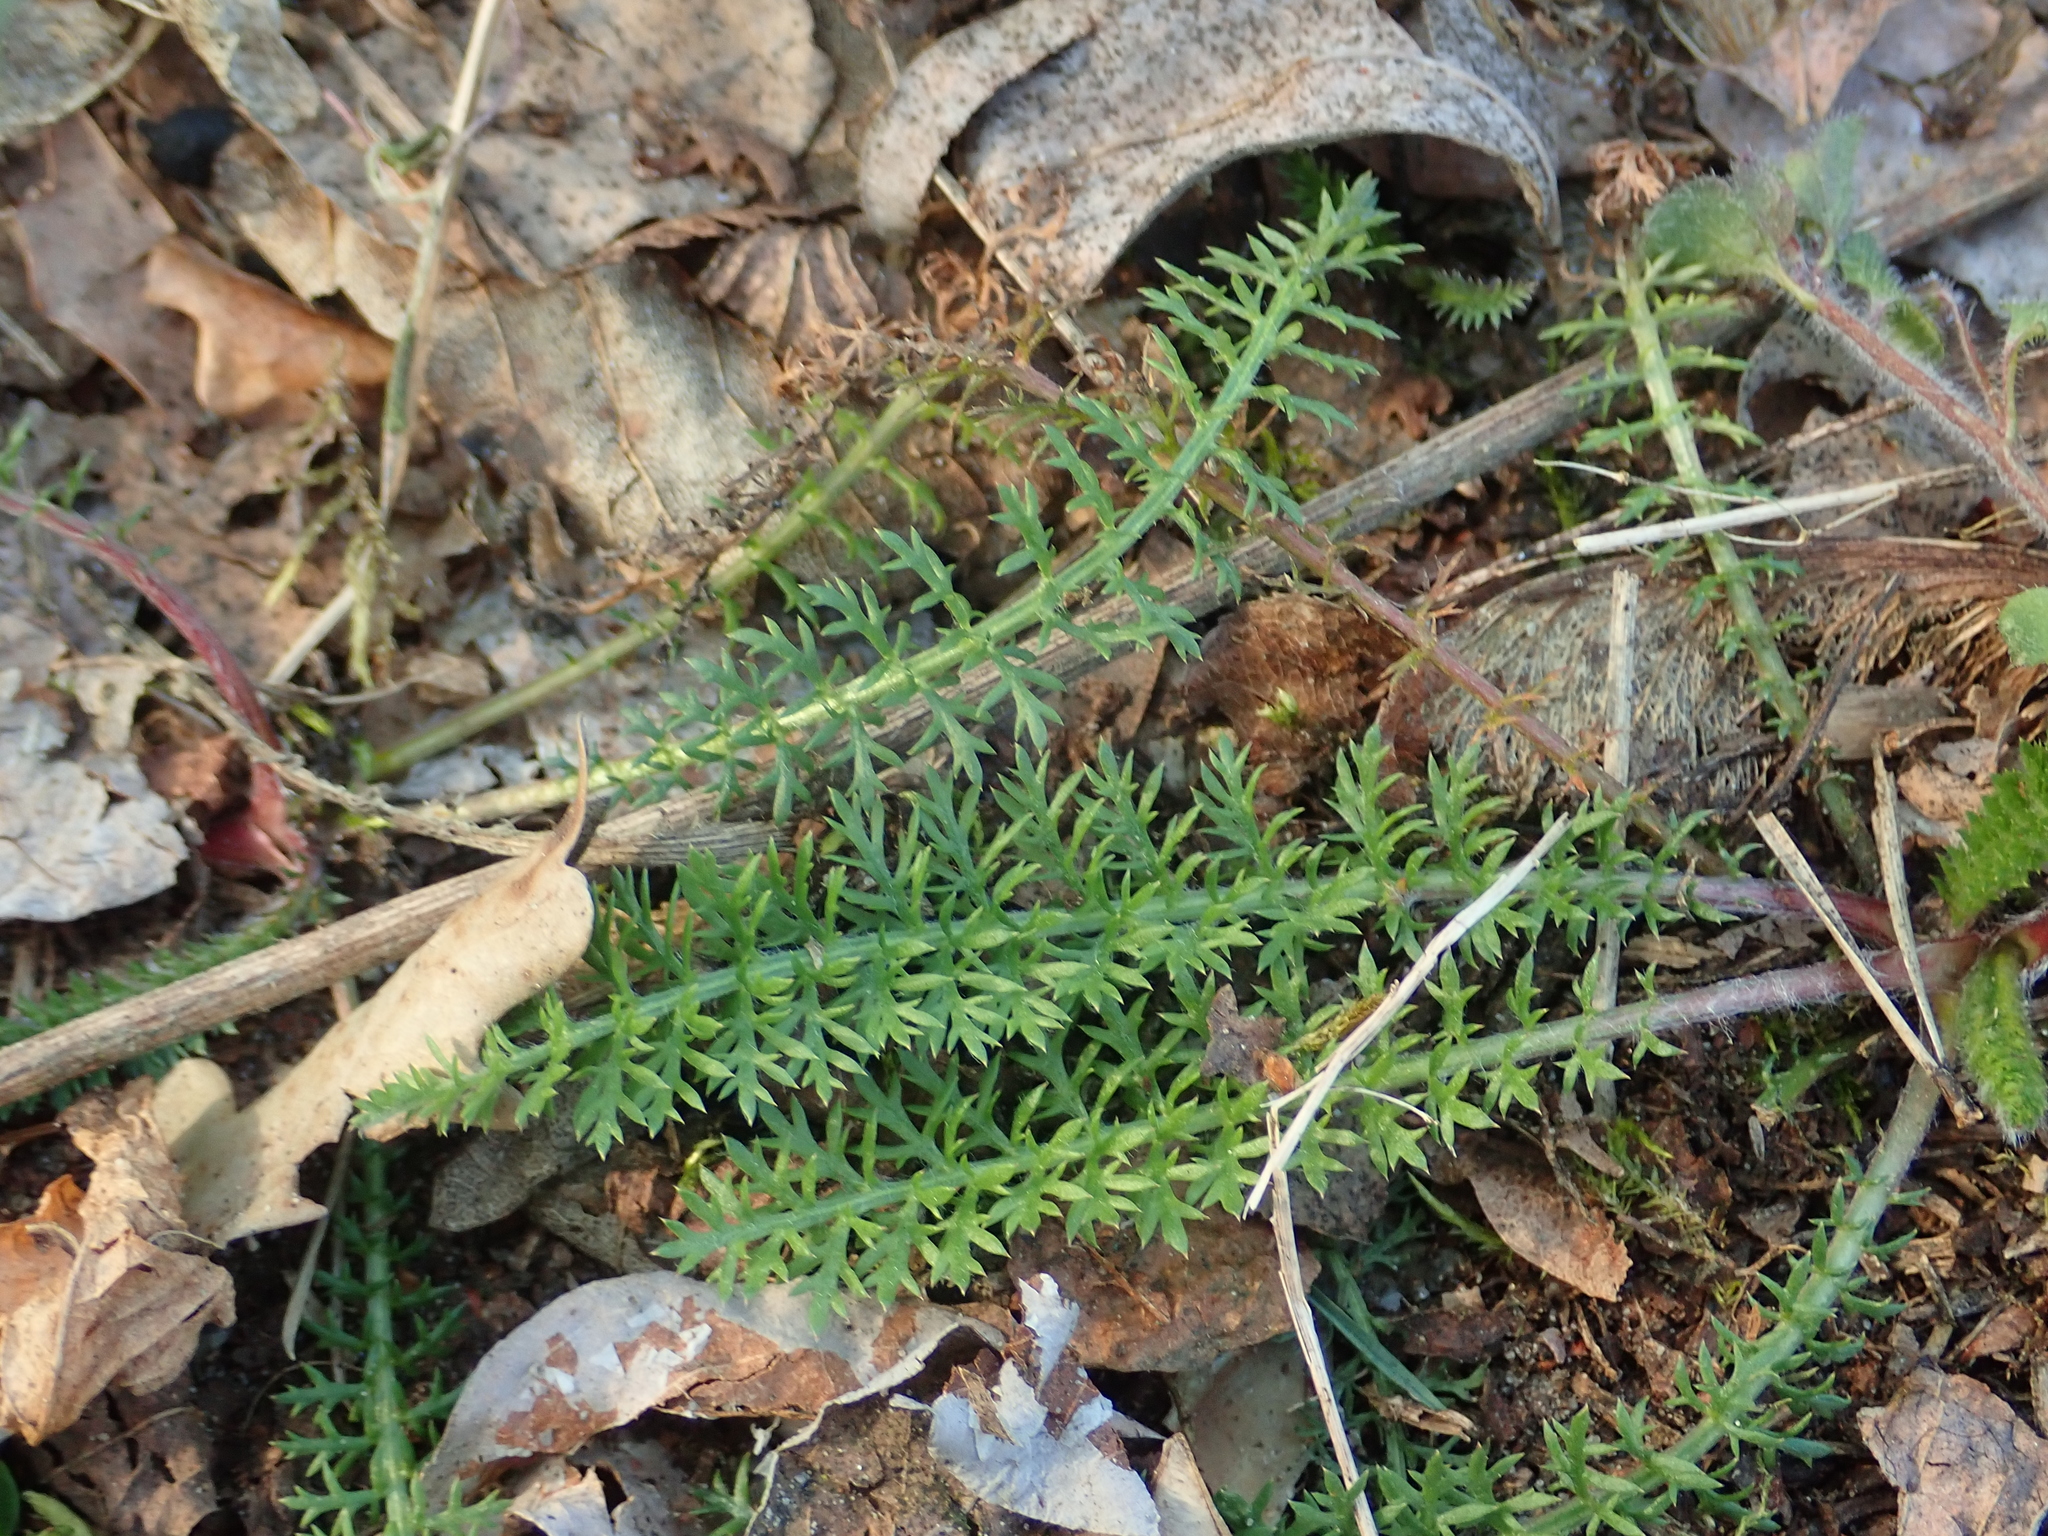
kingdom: Plantae
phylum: Tracheophyta
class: Magnoliopsida
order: Asterales
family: Asteraceae
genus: Achillea
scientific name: Achillea millefolium
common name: Yarrow
